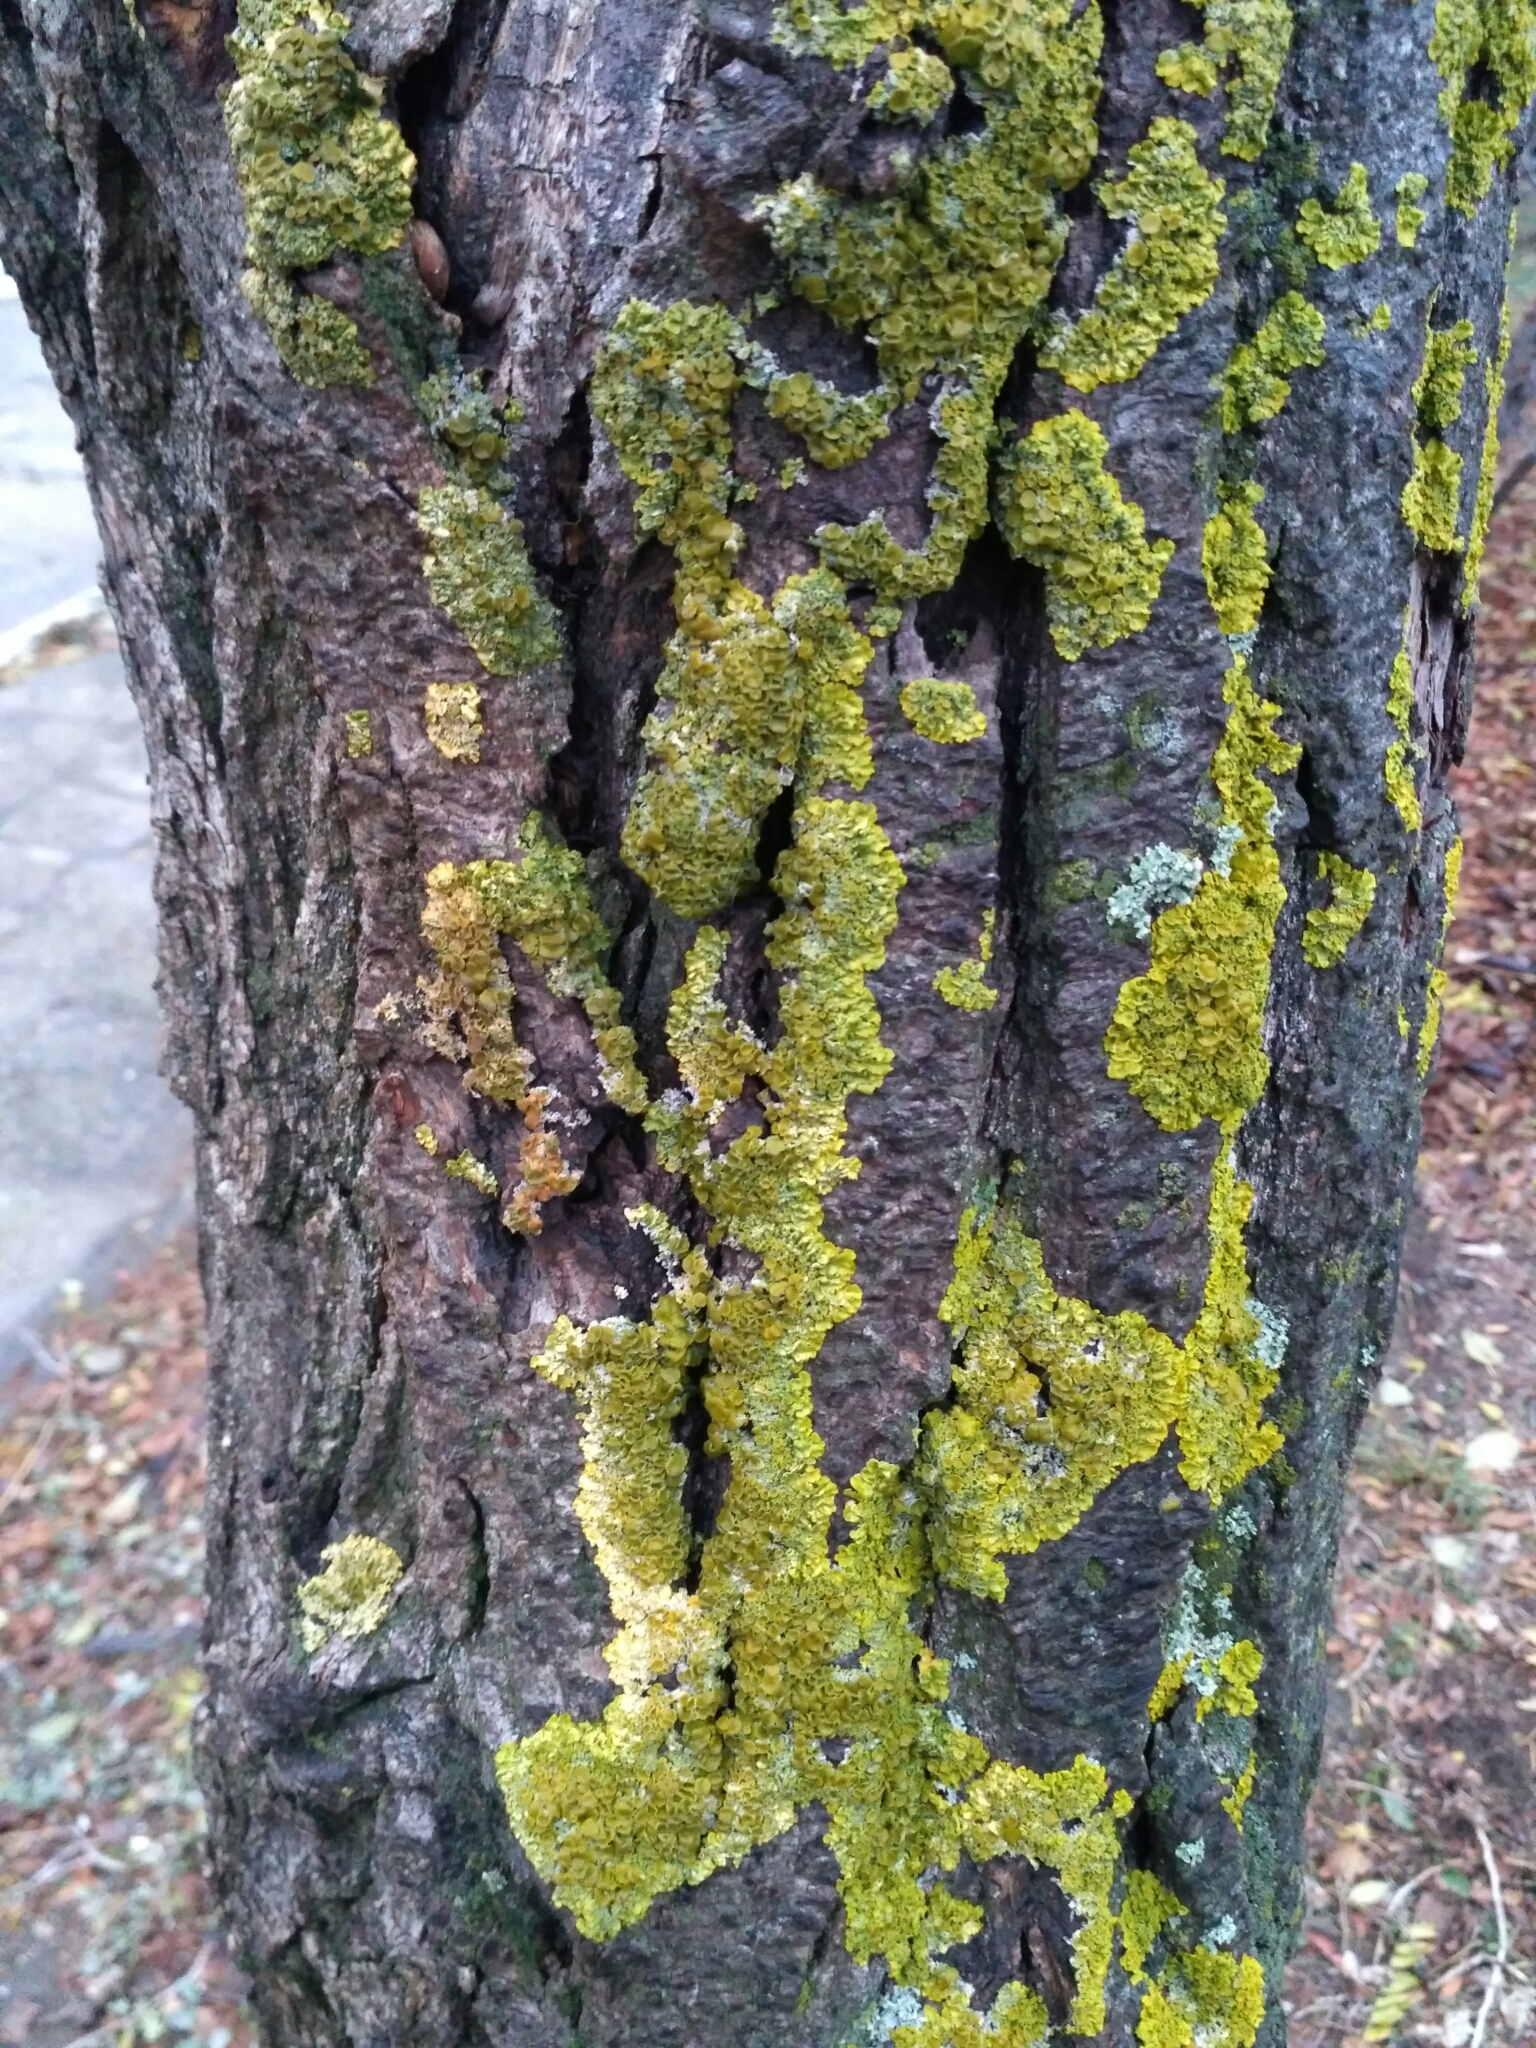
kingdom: Fungi
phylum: Ascomycota
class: Lecanoromycetes
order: Teloschistales
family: Teloschistaceae
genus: Xanthoria
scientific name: Xanthoria parietina
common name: Common orange lichen
